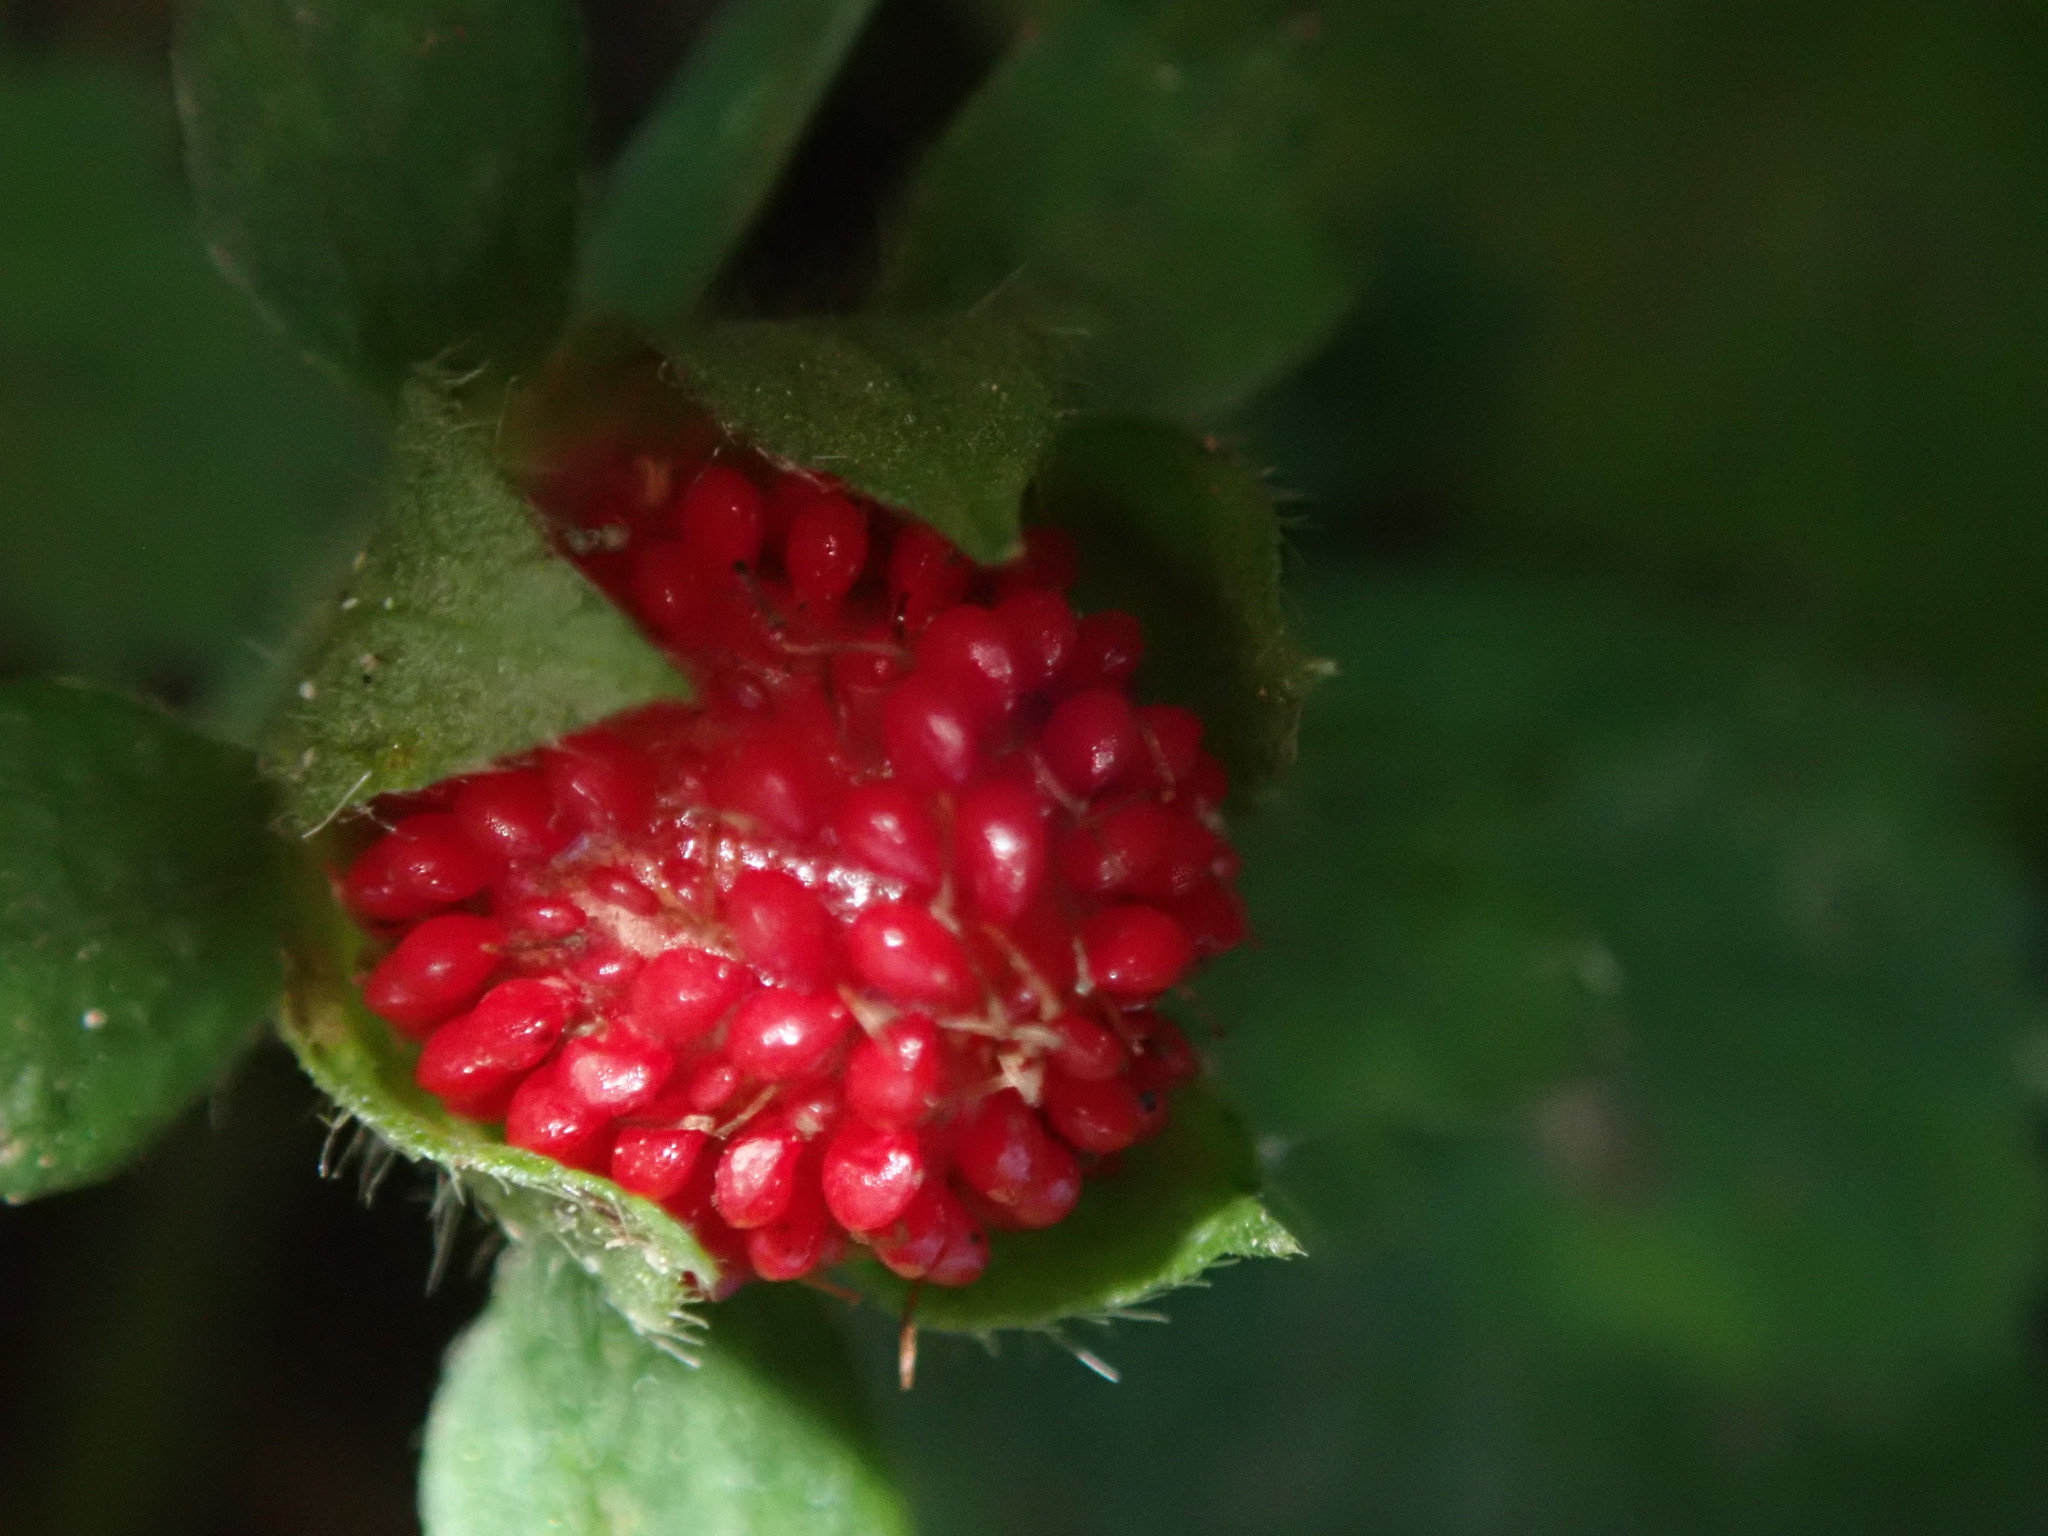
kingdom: Plantae
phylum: Tracheophyta
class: Magnoliopsida
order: Rosales
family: Rosaceae
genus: Potentilla
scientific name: Potentilla indica
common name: Yellow-flowered strawberry
